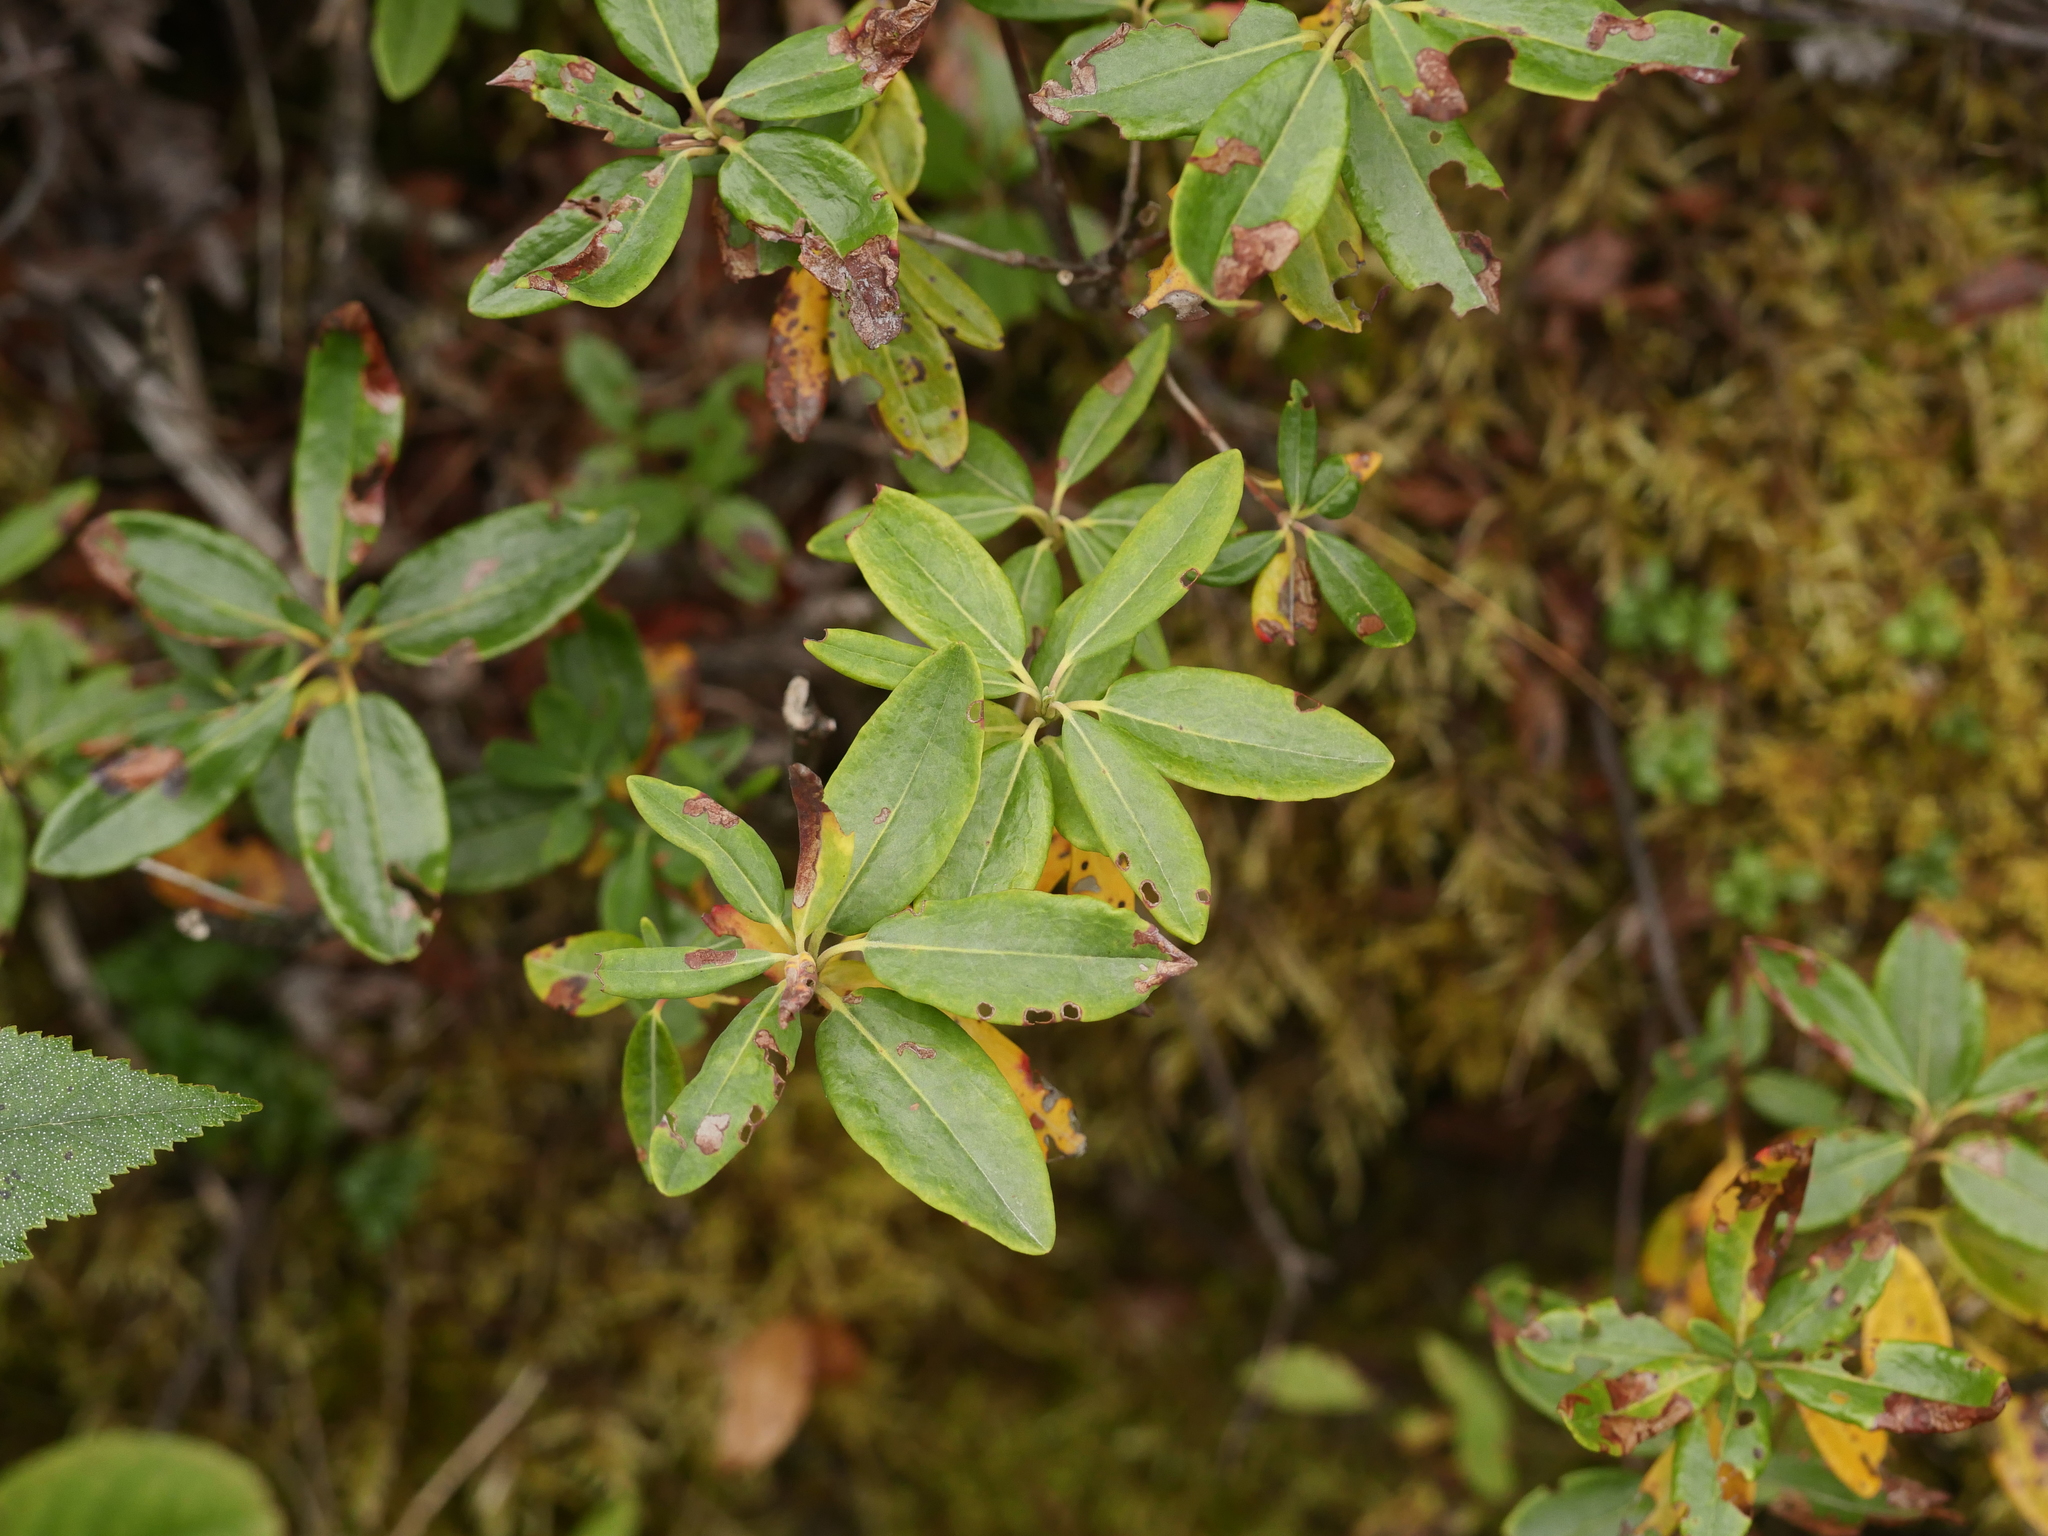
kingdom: Plantae
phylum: Tracheophyta
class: Magnoliopsida
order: Ericales
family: Ericaceae
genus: Kalmia
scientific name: Kalmia angustifolia
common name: Sheep-laurel
